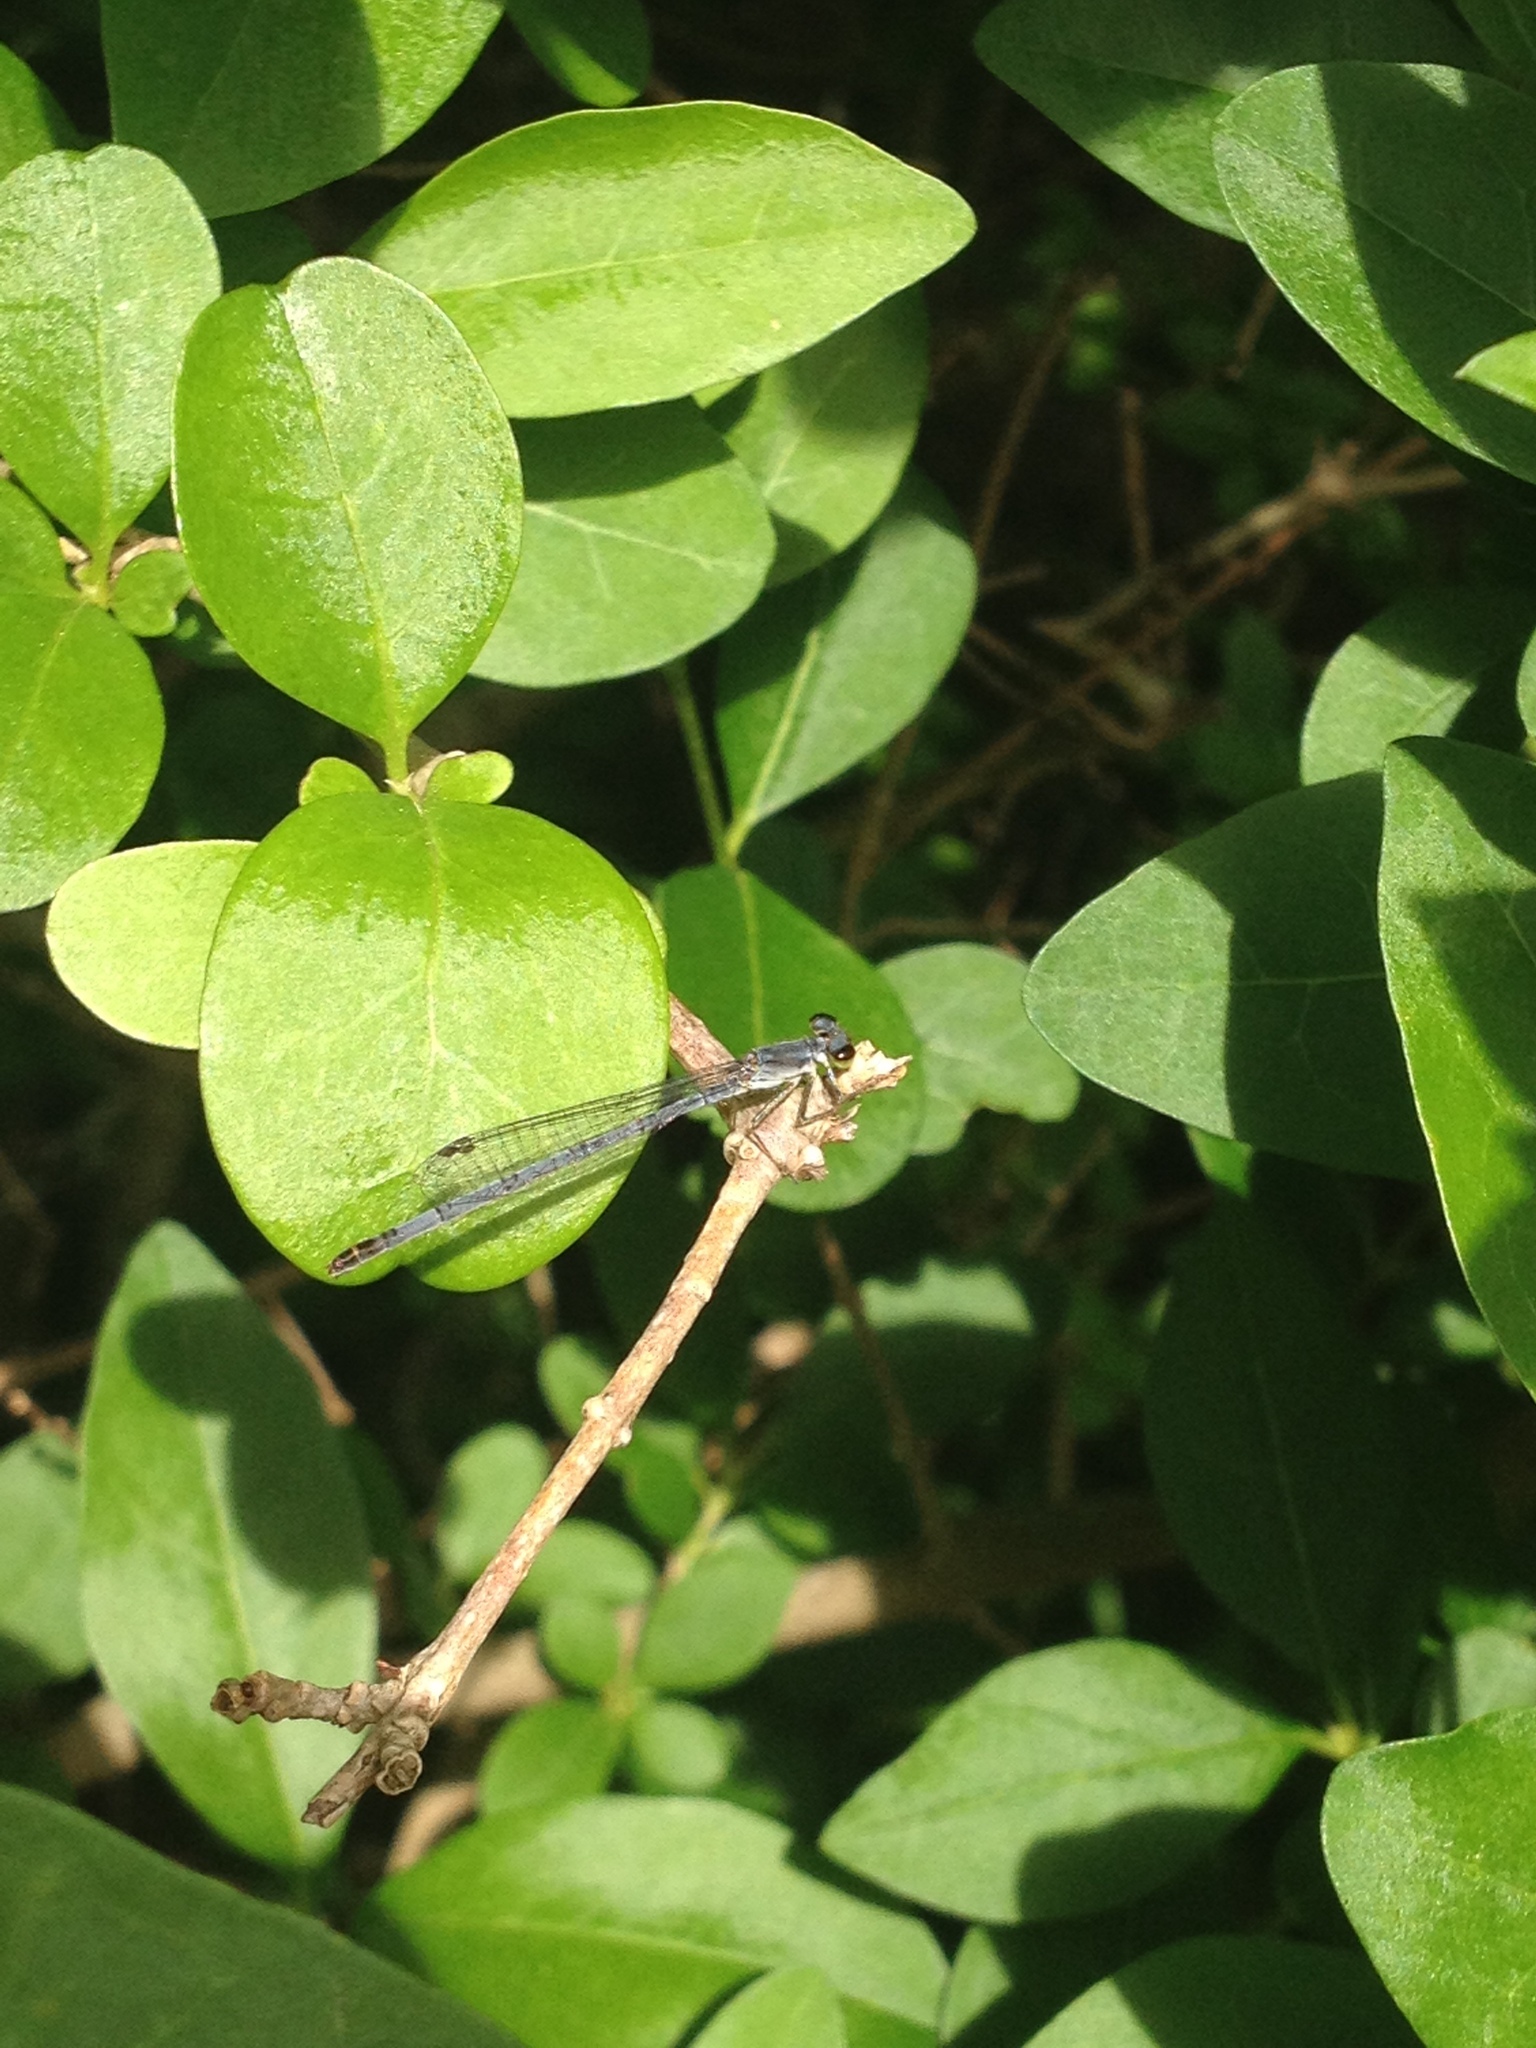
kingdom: Animalia
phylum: Arthropoda
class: Insecta
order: Odonata
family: Coenagrionidae
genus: Ischnura
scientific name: Ischnura posita
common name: Fragile forktail
